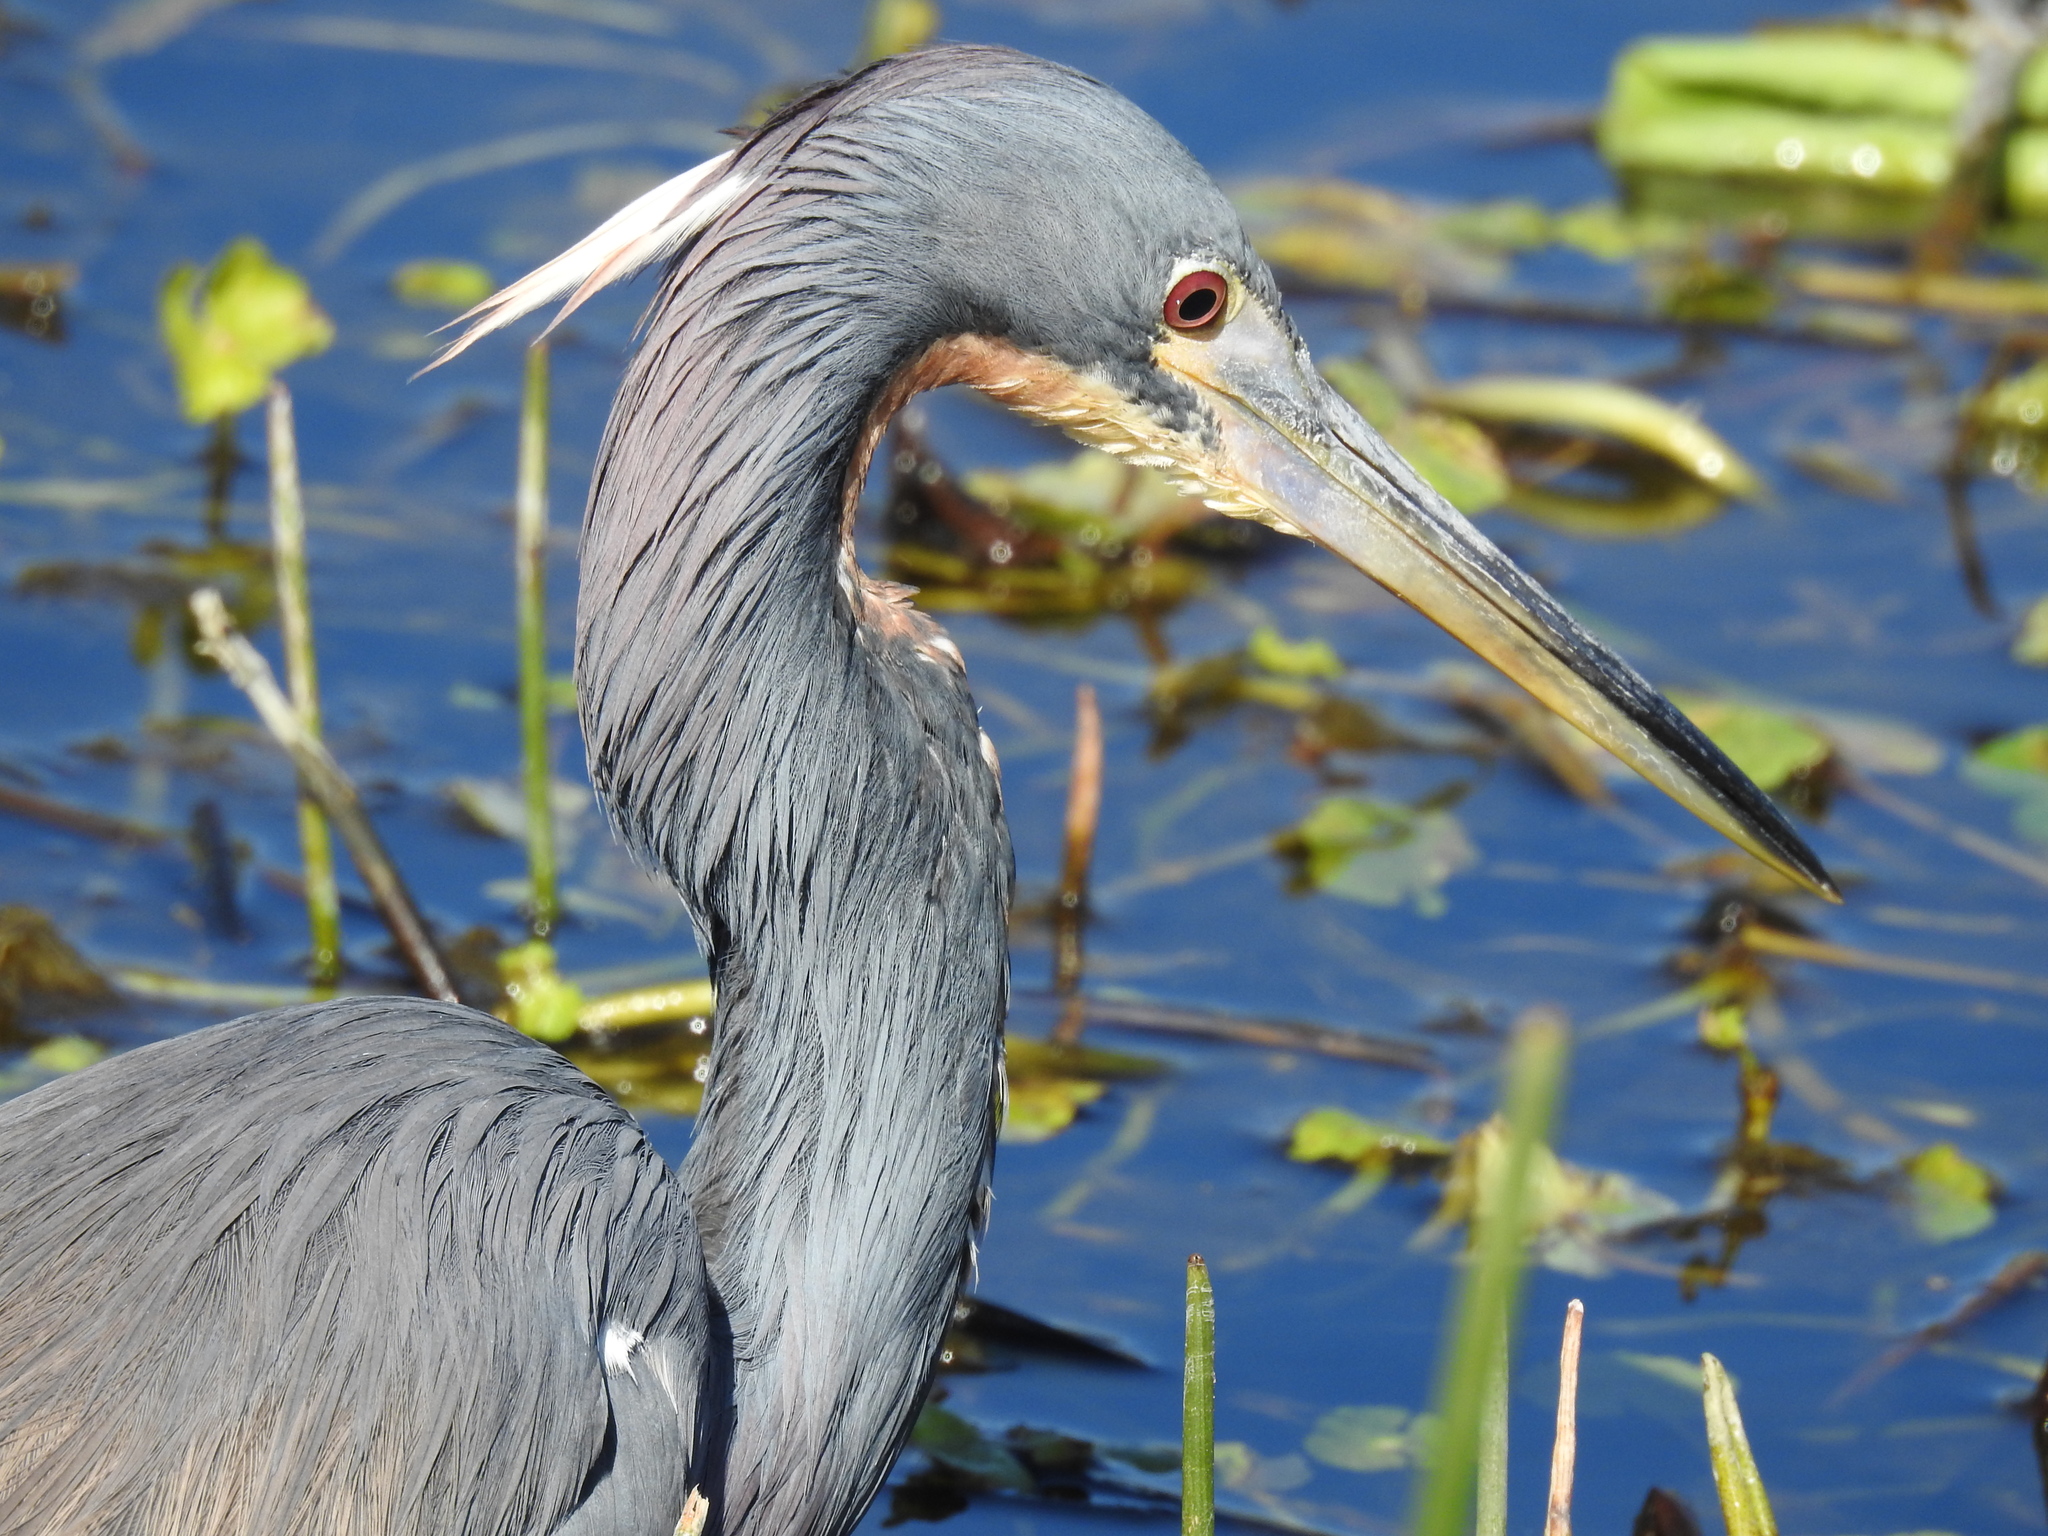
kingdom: Animalia
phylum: Chordata
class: Aves
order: Pelecaniformes
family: Ardeidae
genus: Egretta
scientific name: Egretta tricolor
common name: Tricolored heron
